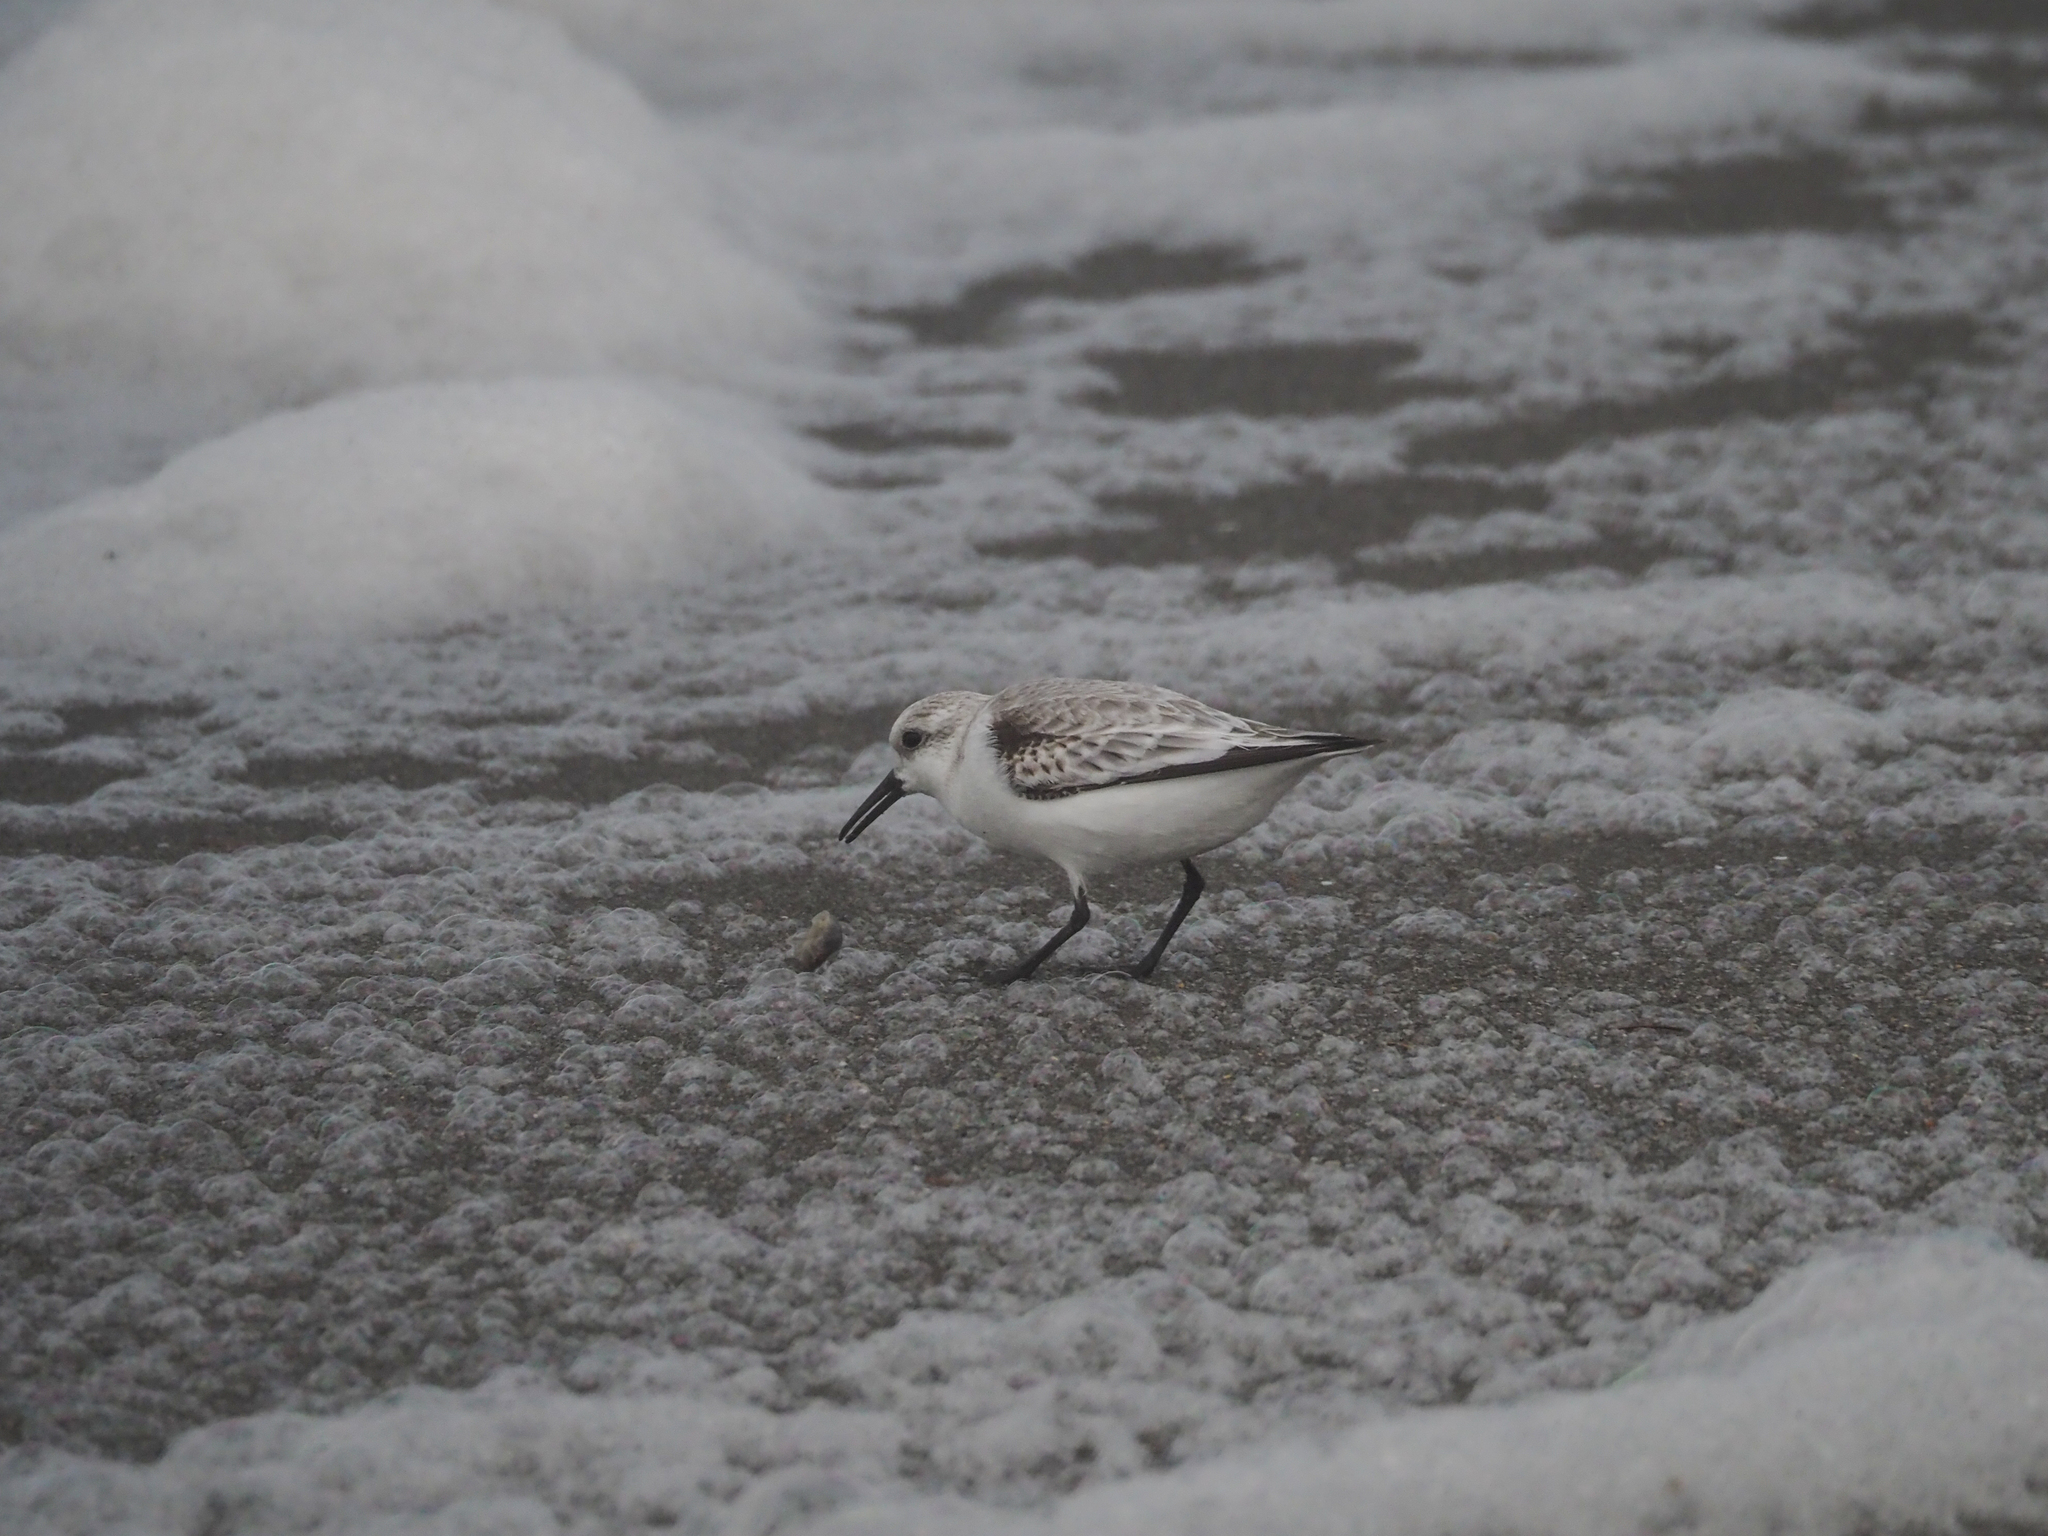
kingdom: Animalia
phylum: Chordata
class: Aves
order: Charadriiformes
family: Scolopacidae
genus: Calidris
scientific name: Calidris alba
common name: Sanderling
